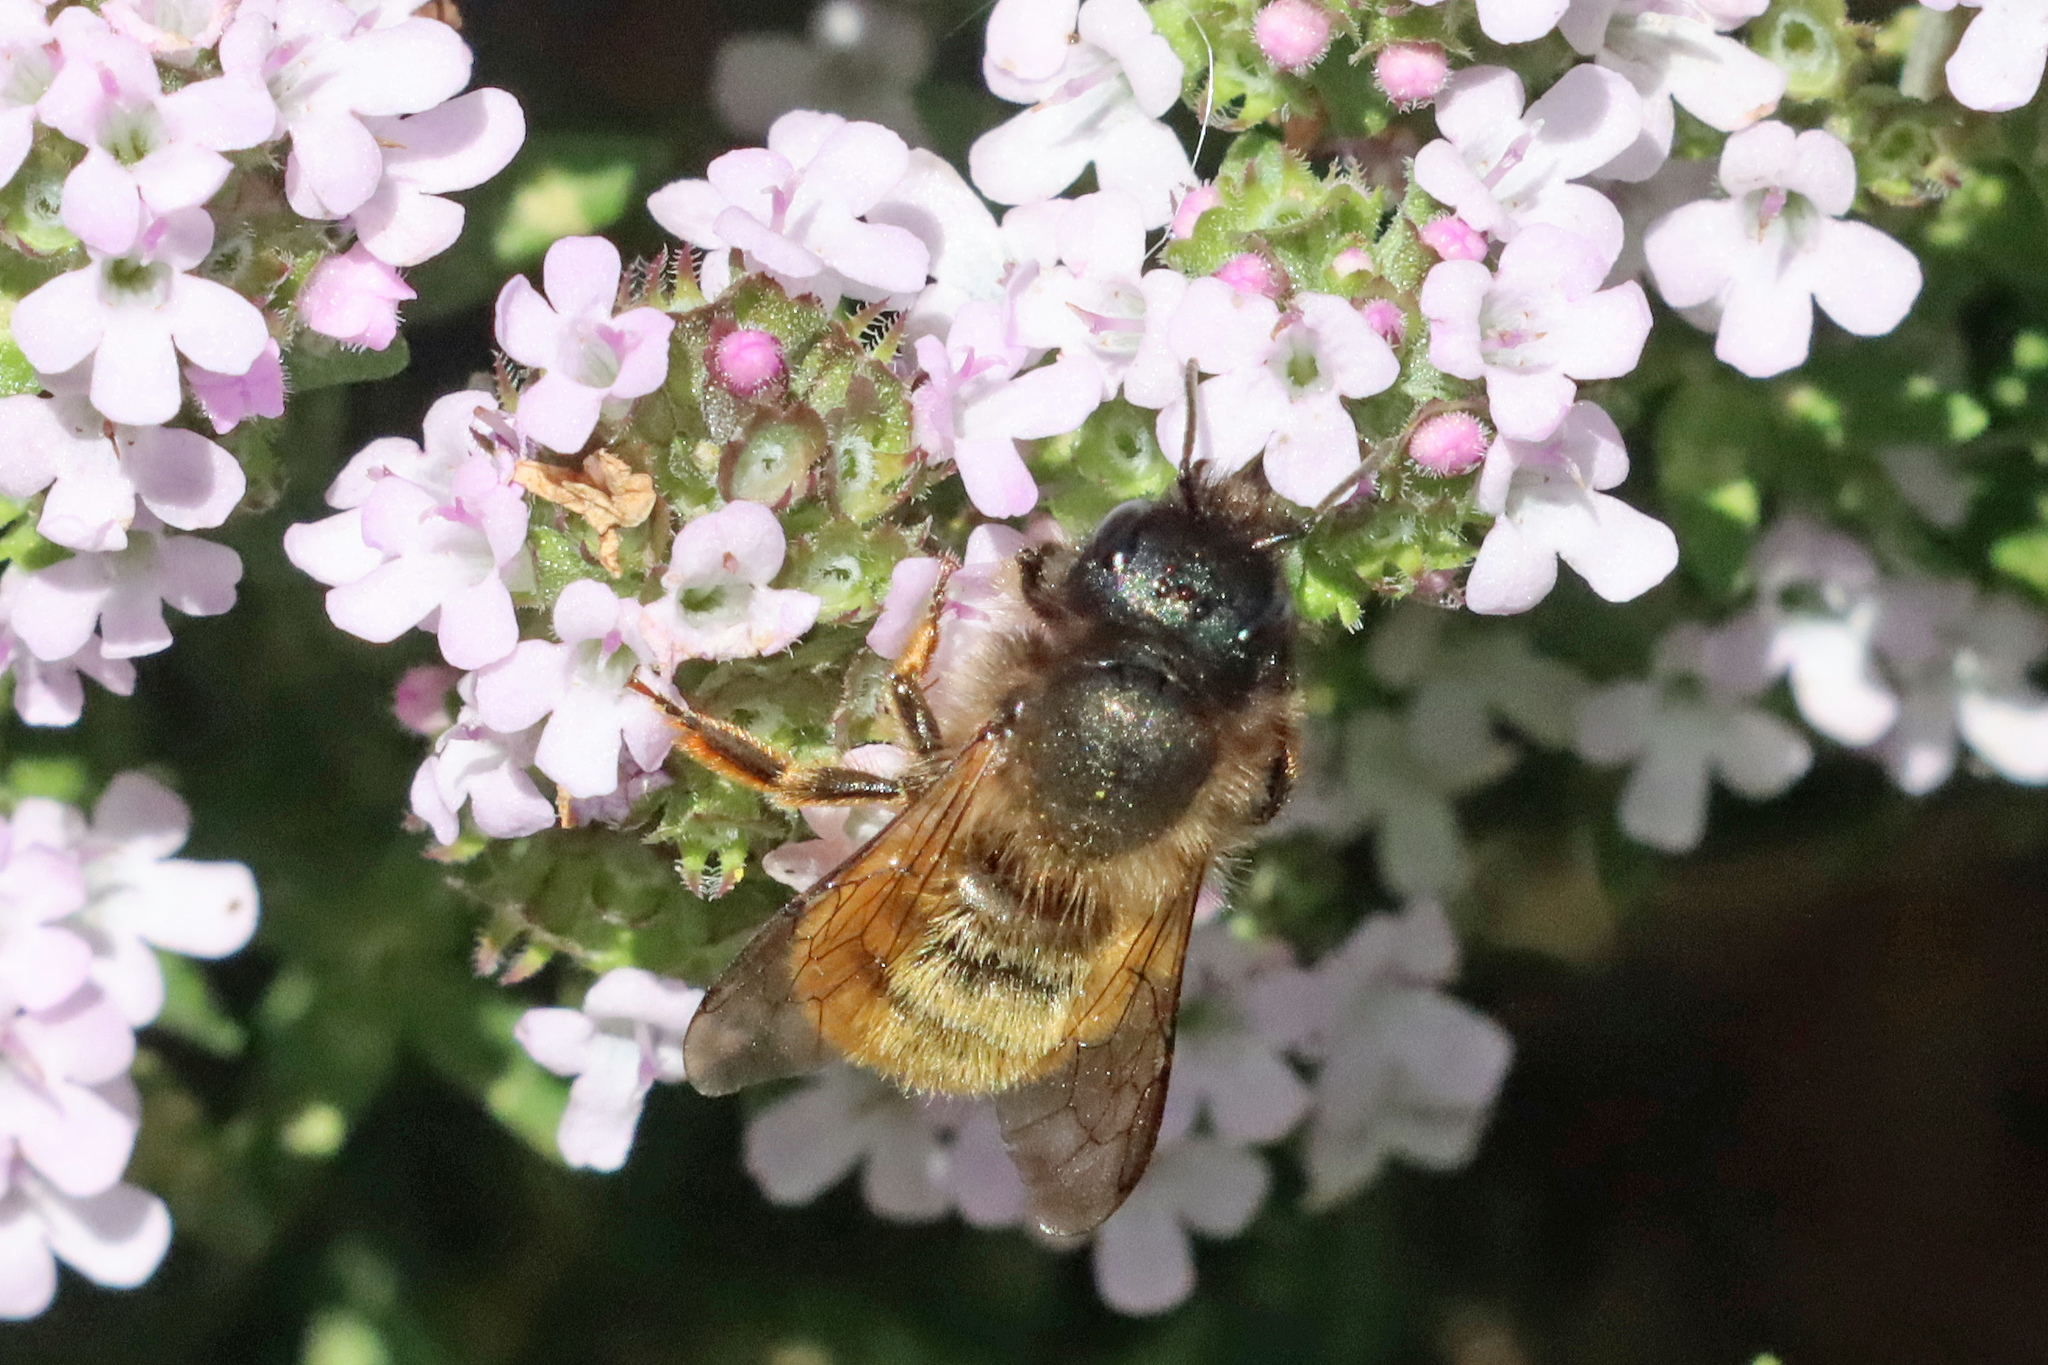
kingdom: Animalia
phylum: Arthropoda
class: Insecta
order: Hymenoptera
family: Megachilidae
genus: Osmia
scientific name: Osmia bicornis
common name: Red mason bee
